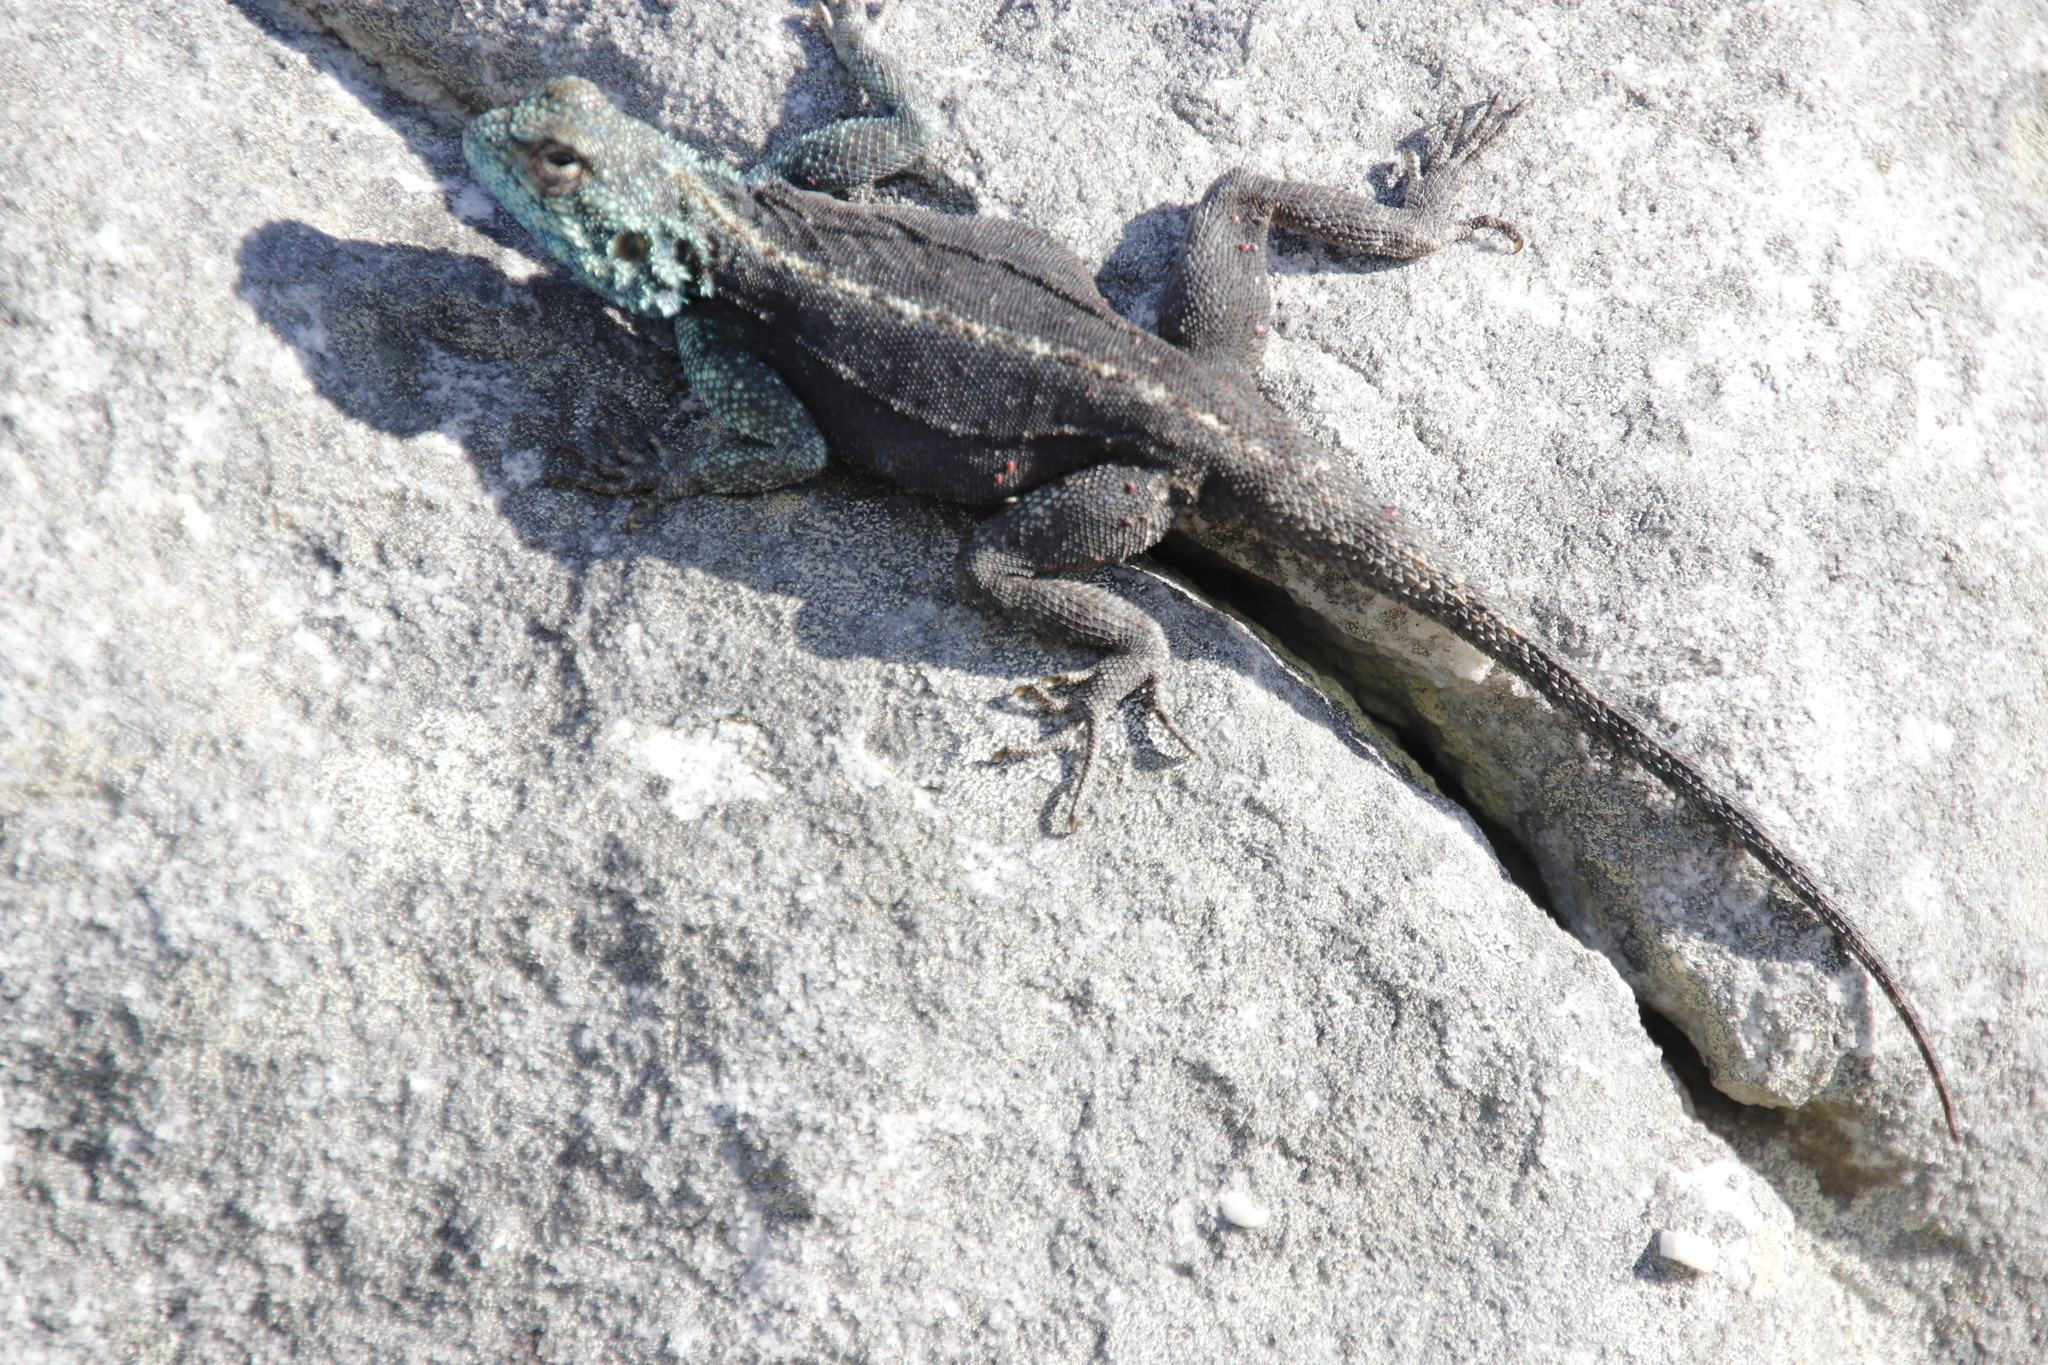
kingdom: Animalia
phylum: Chordata
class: Squamata
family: Agamidae
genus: Agama
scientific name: Agama atra
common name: Southern african rock agama
